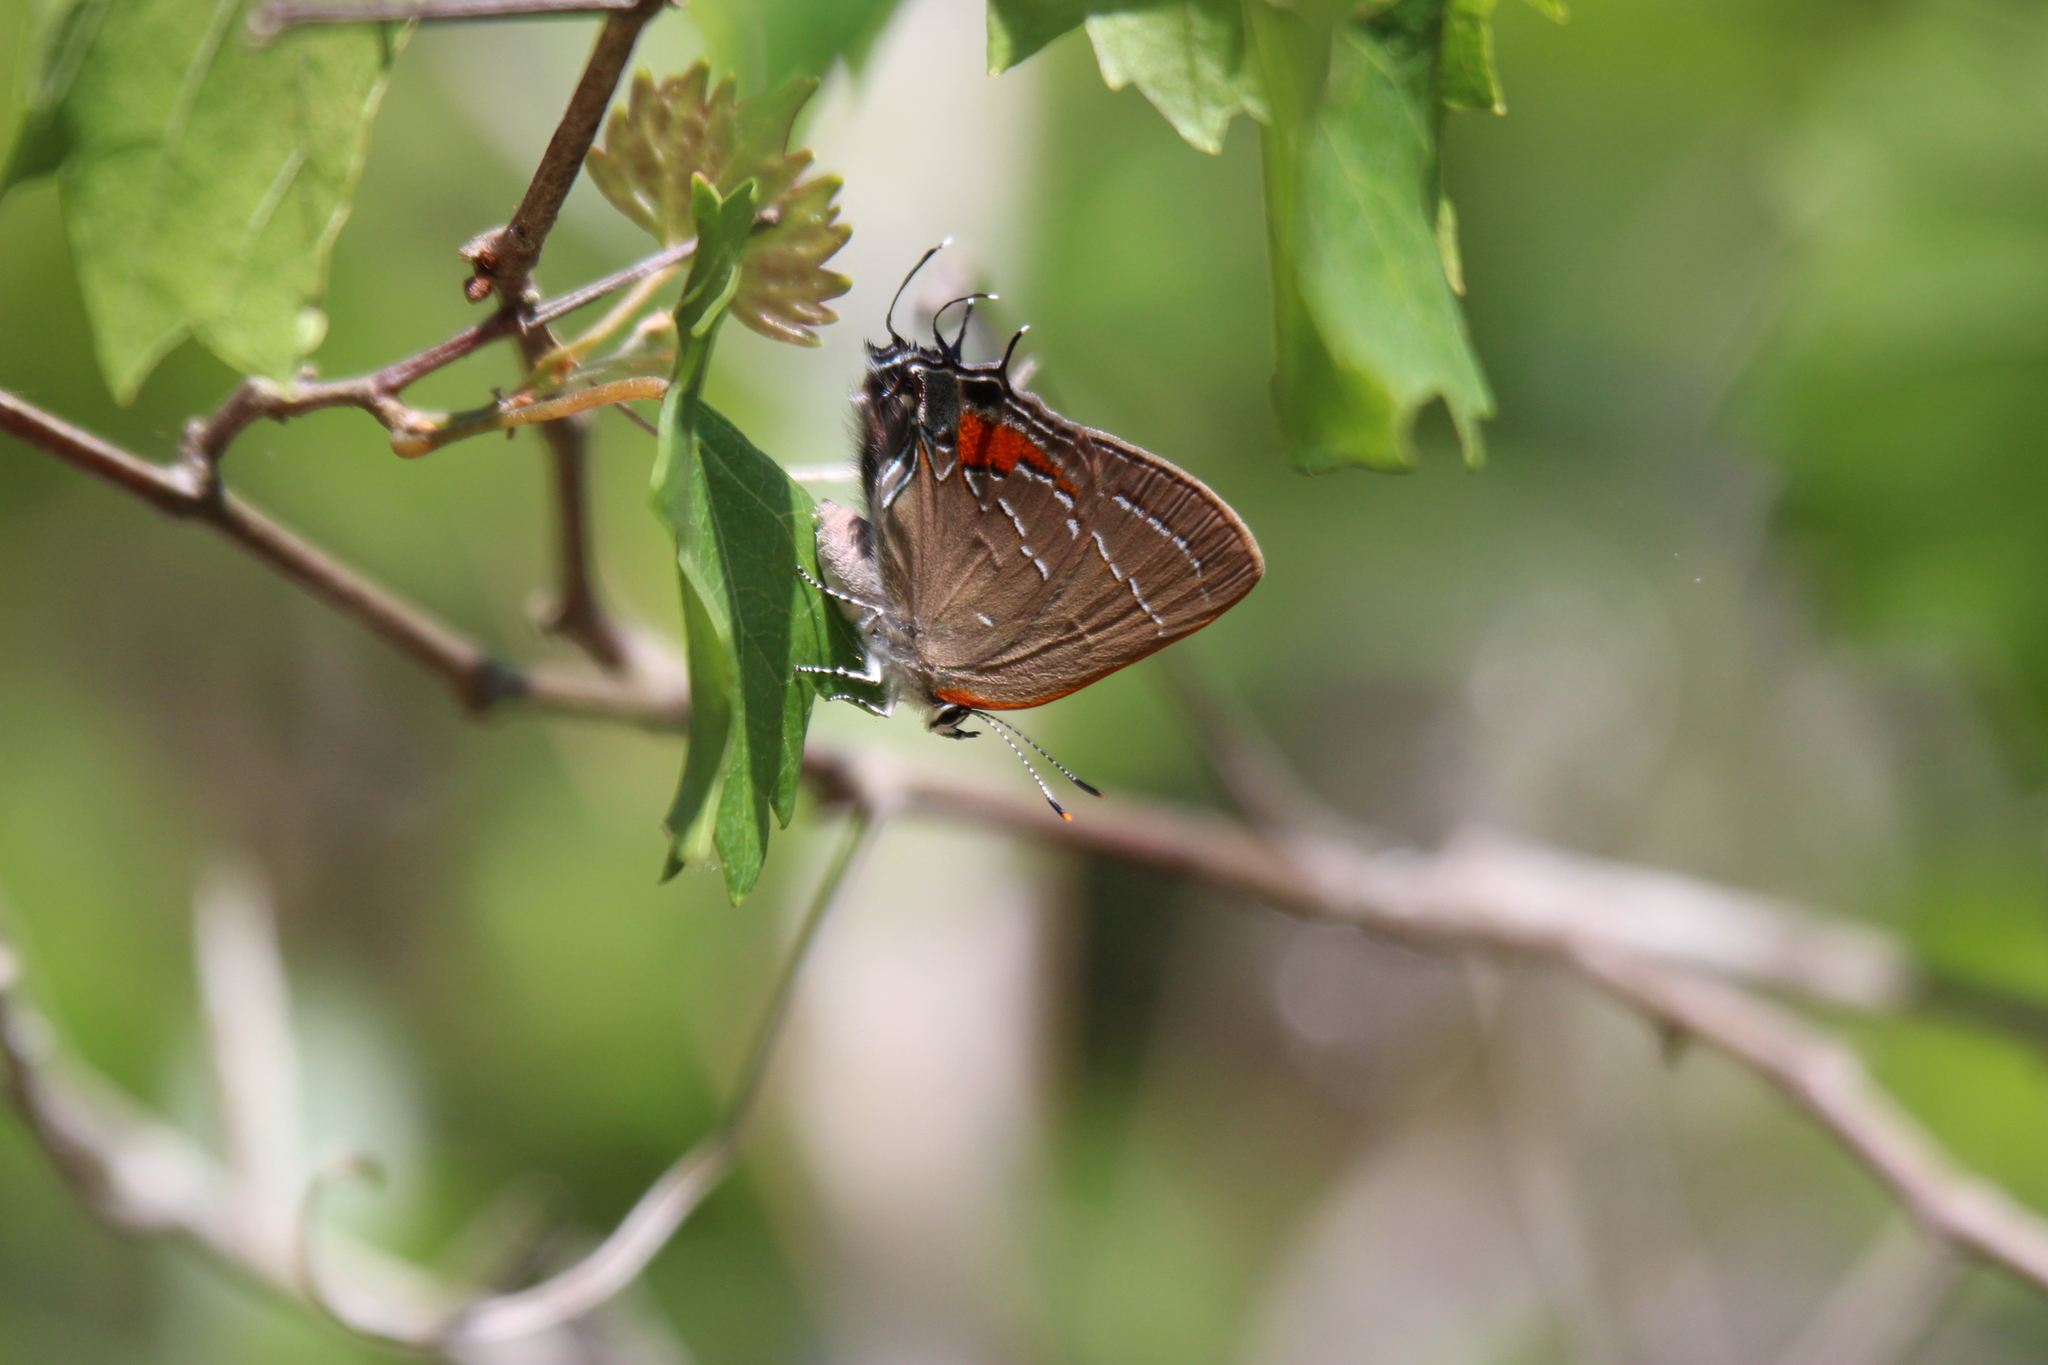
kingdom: Animalia
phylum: Arthropoda
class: Insecta
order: Lepidoptera
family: Lycaenidae
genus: Fixsenia
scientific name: Fixsenia favonius
